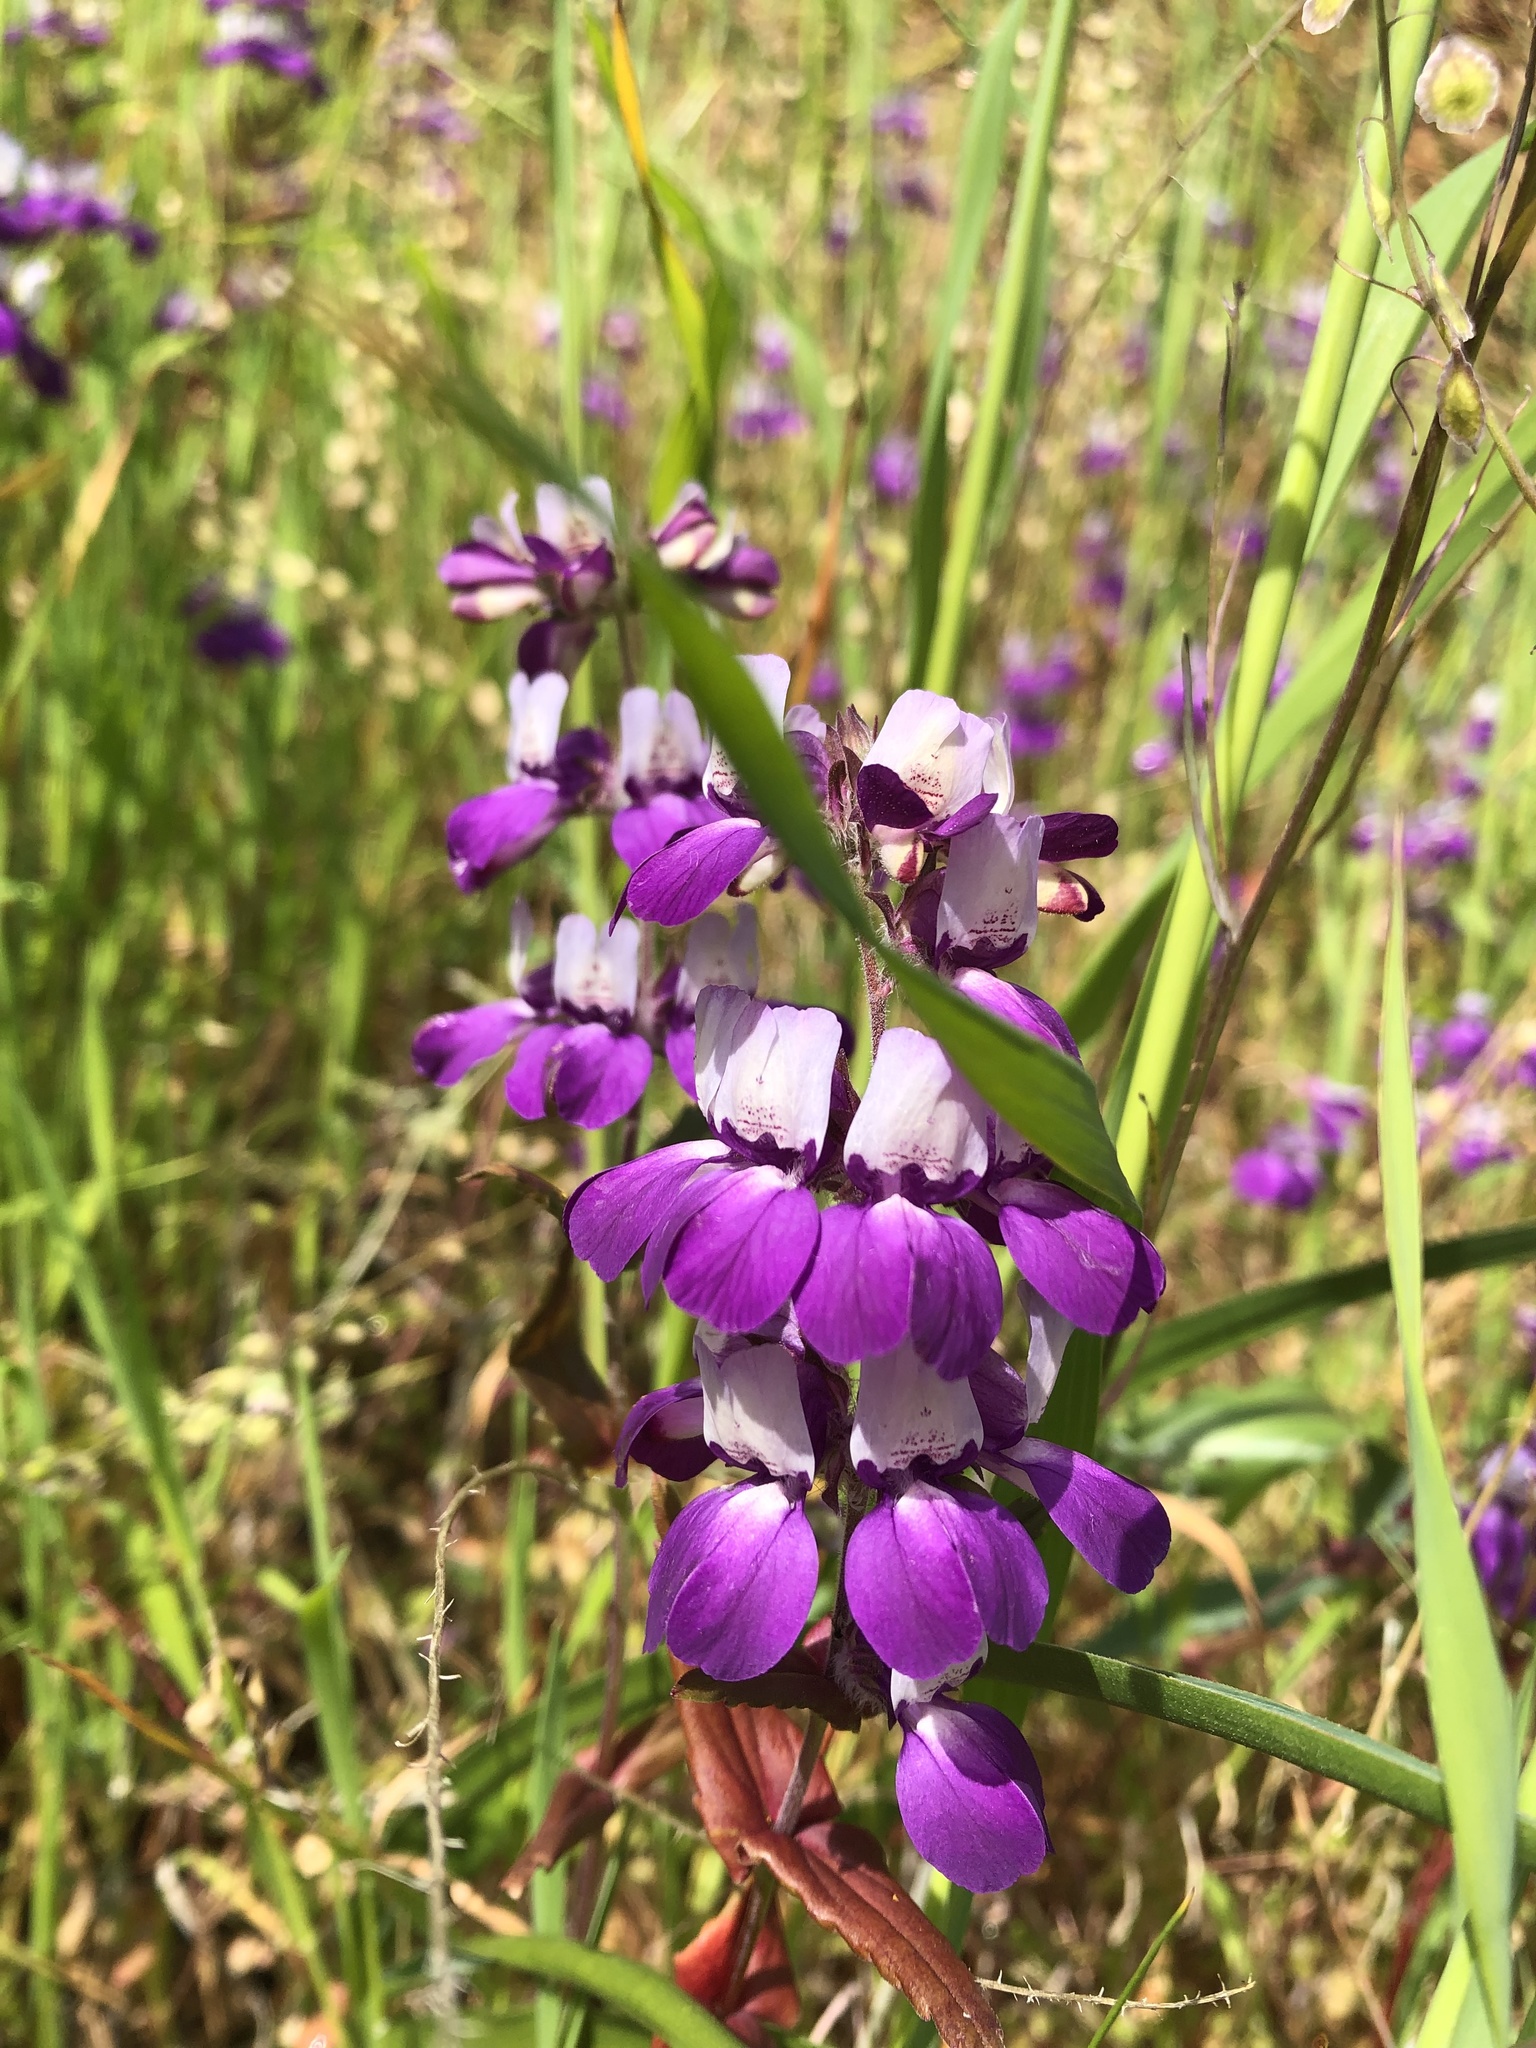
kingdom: Plantae
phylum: Tracheophyta
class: Magnoliopsida
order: Lamiales
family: Plantaginaceae
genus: Collinsia
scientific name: Collinsia heterophylla
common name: Chinese-houses
